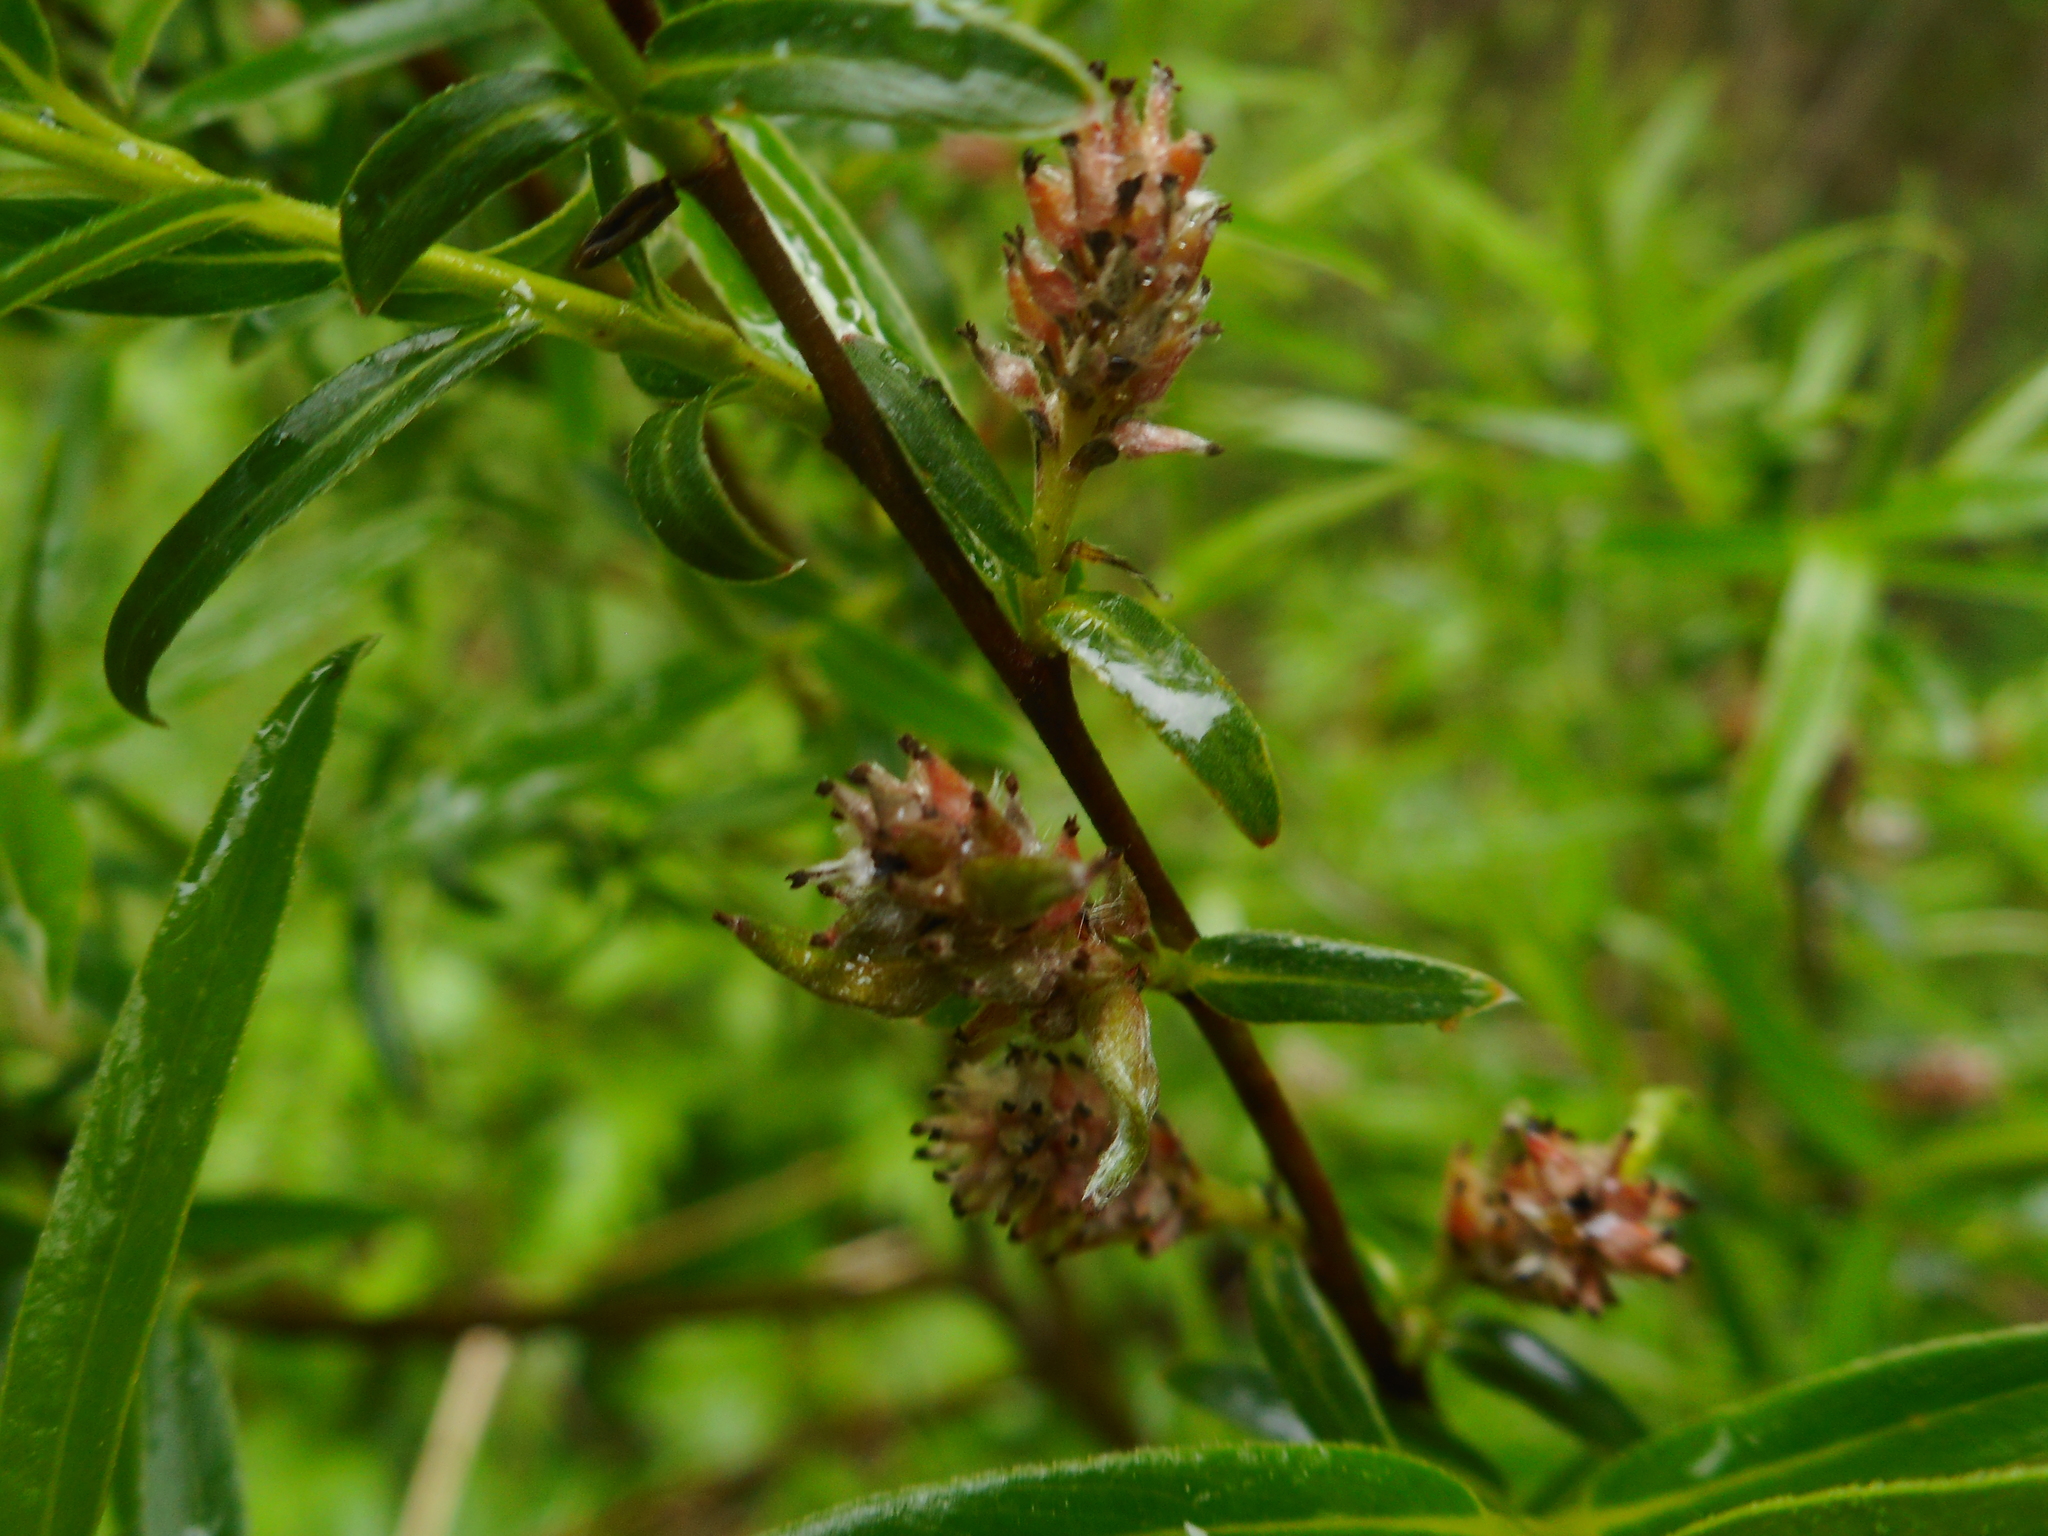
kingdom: Plantae
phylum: Tracheophyta
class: Magnoliopsida
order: Malpighiales
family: Salicaceae
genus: Salix
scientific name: Salix rosmarinifolia
